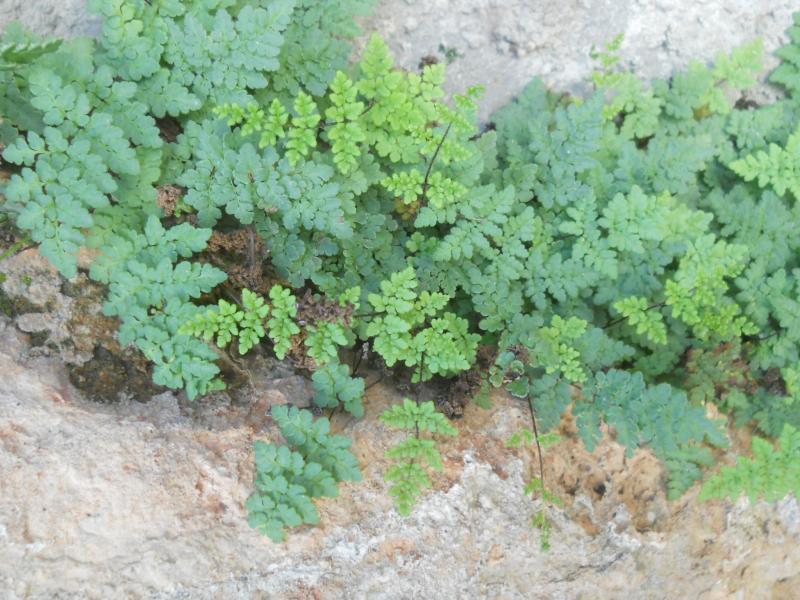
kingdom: Plantae
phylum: Tracheophyta
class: Polypodiopsida
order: Polypodiales
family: Pteridaceae
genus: Oeosporangium
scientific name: Oeosporangium pteridioides
